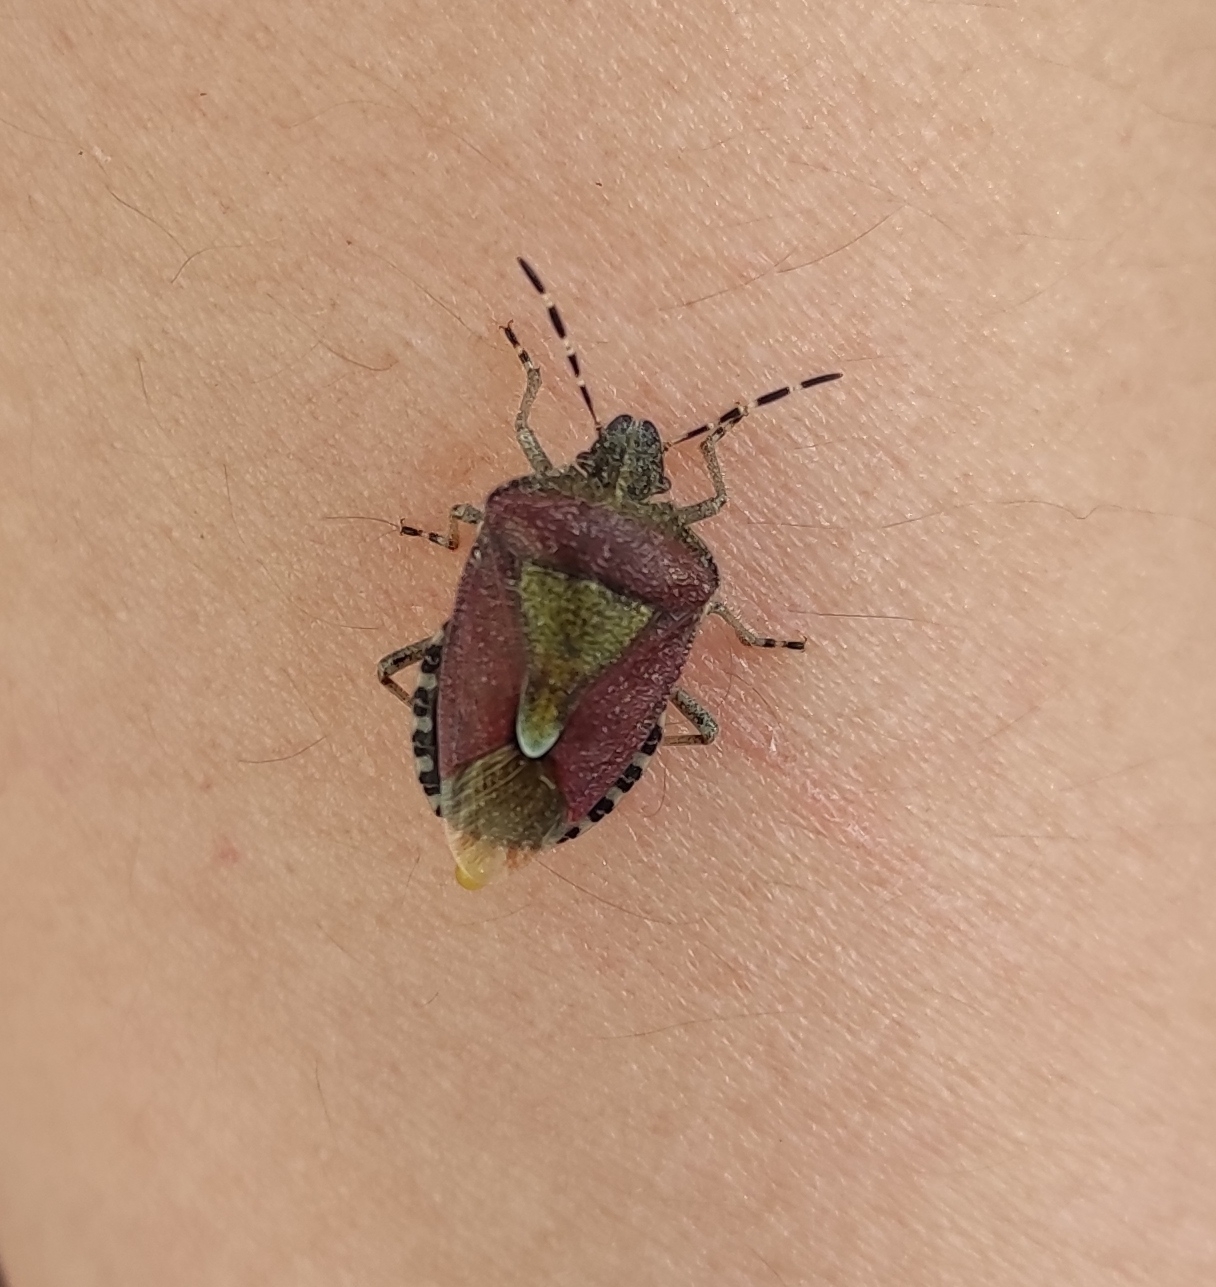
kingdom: Animalia
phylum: Arthropoda
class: Insecta
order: Hemiptera
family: Pentatomidae
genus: Dolycoris
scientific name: Dolycoris baccarum
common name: Sloe bug
